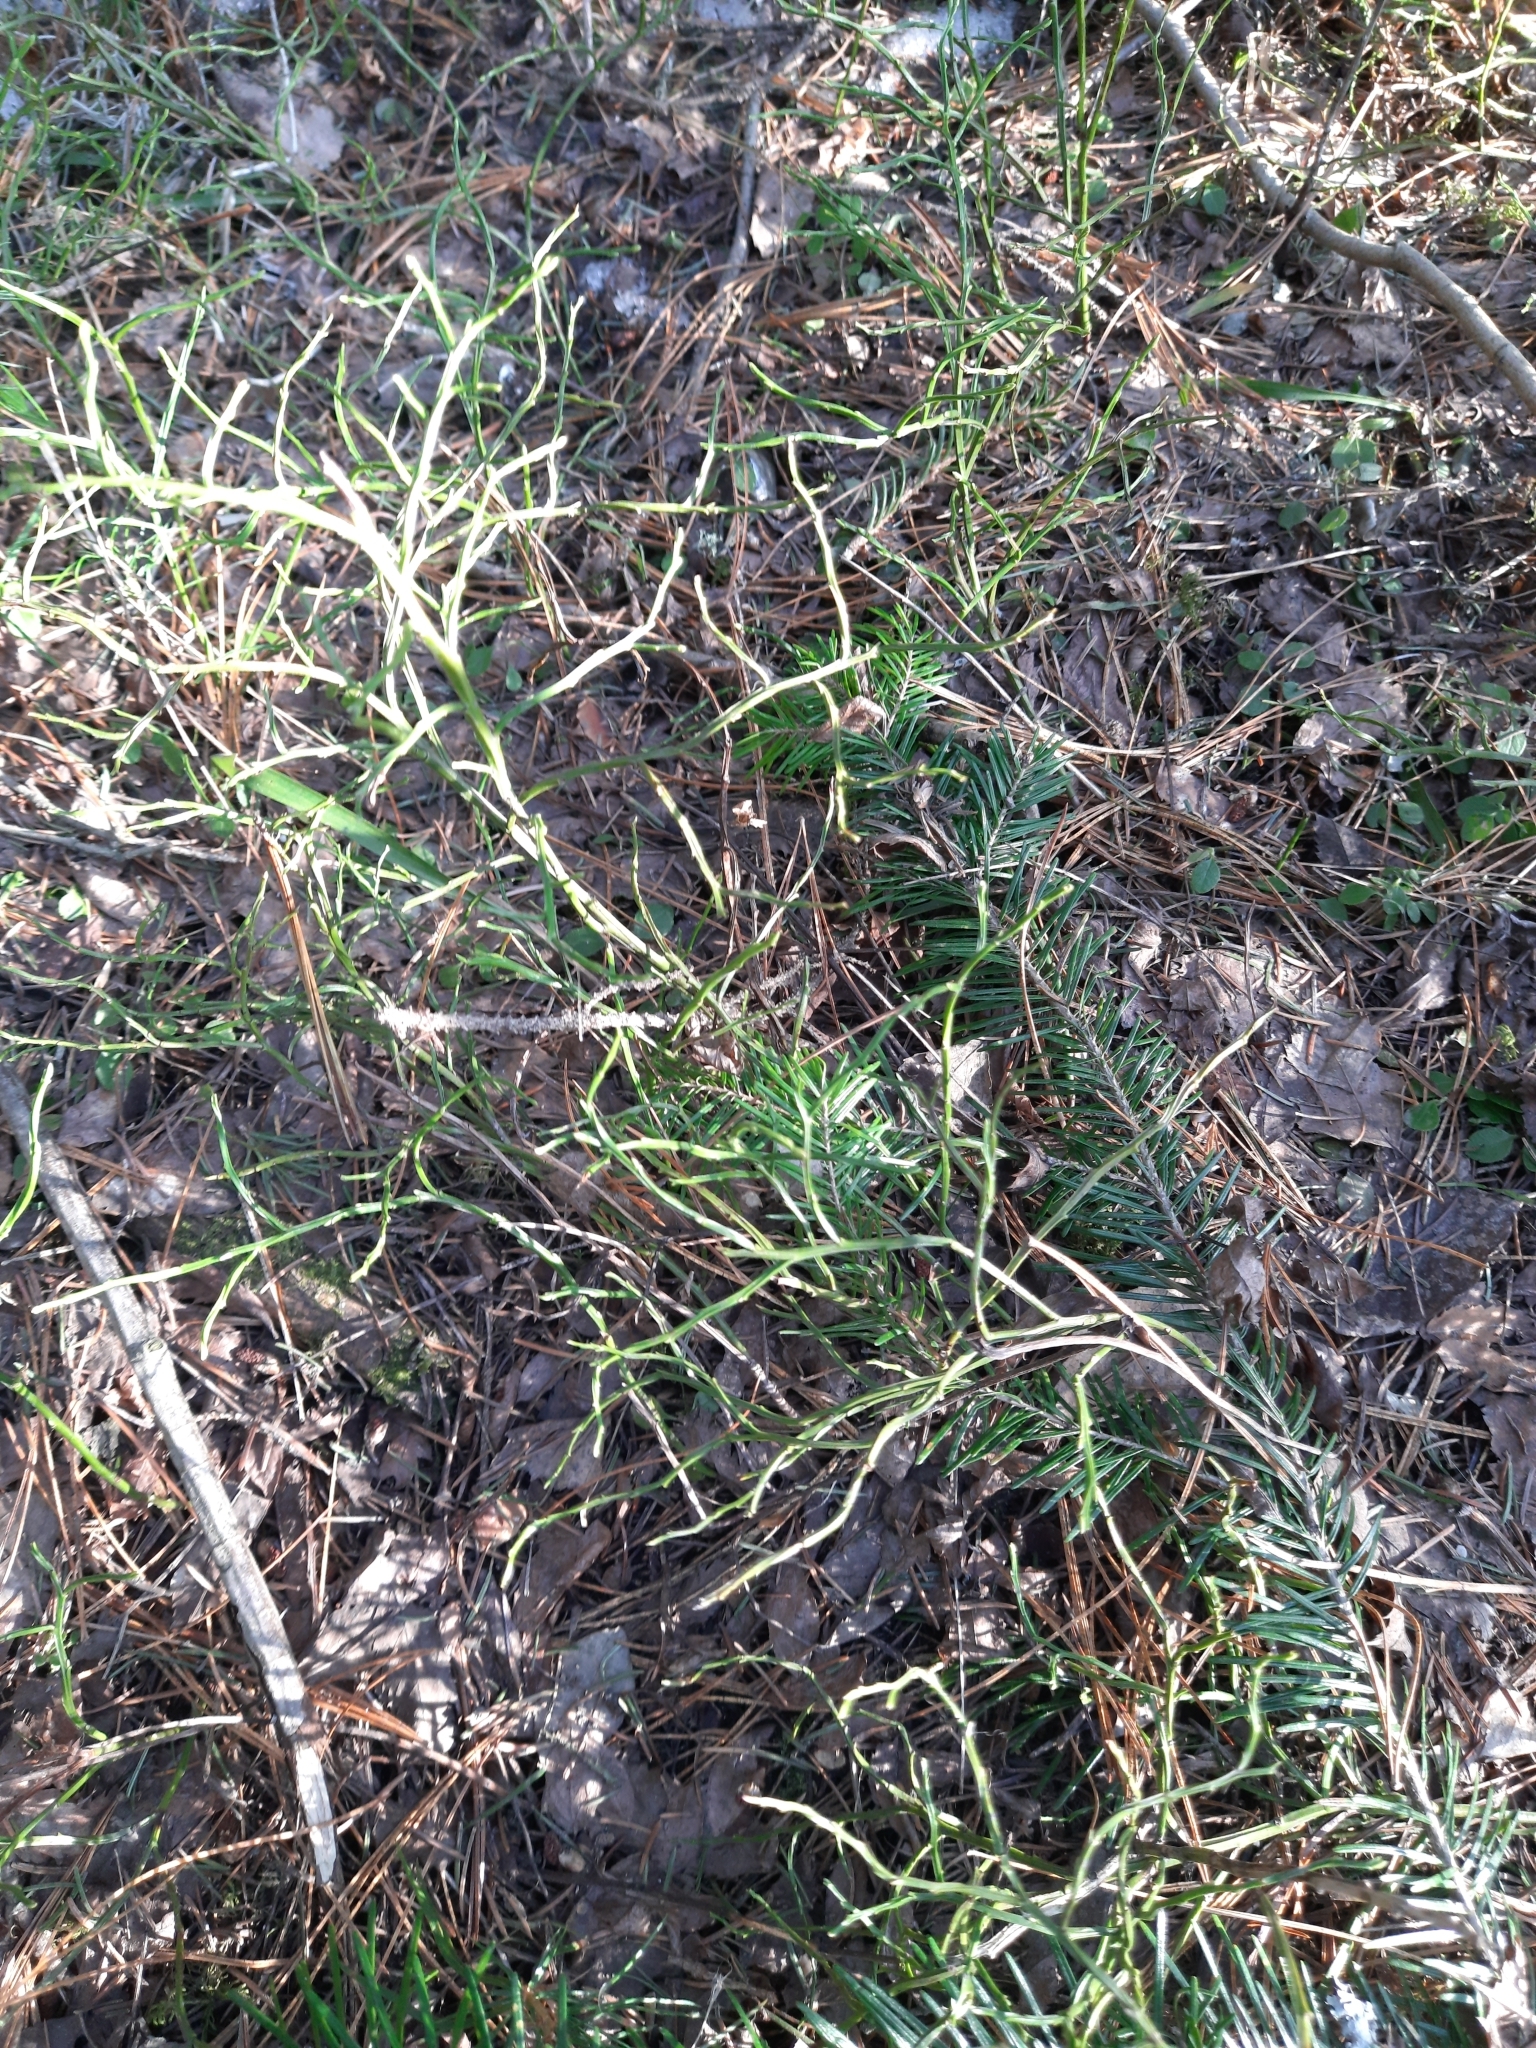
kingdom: Plantae
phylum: Tracheophyta
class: Magnoliopsida
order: Ericales
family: Ericaceae
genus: Vaccinium
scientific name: Vaccinium myrtillus
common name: Bilberry
